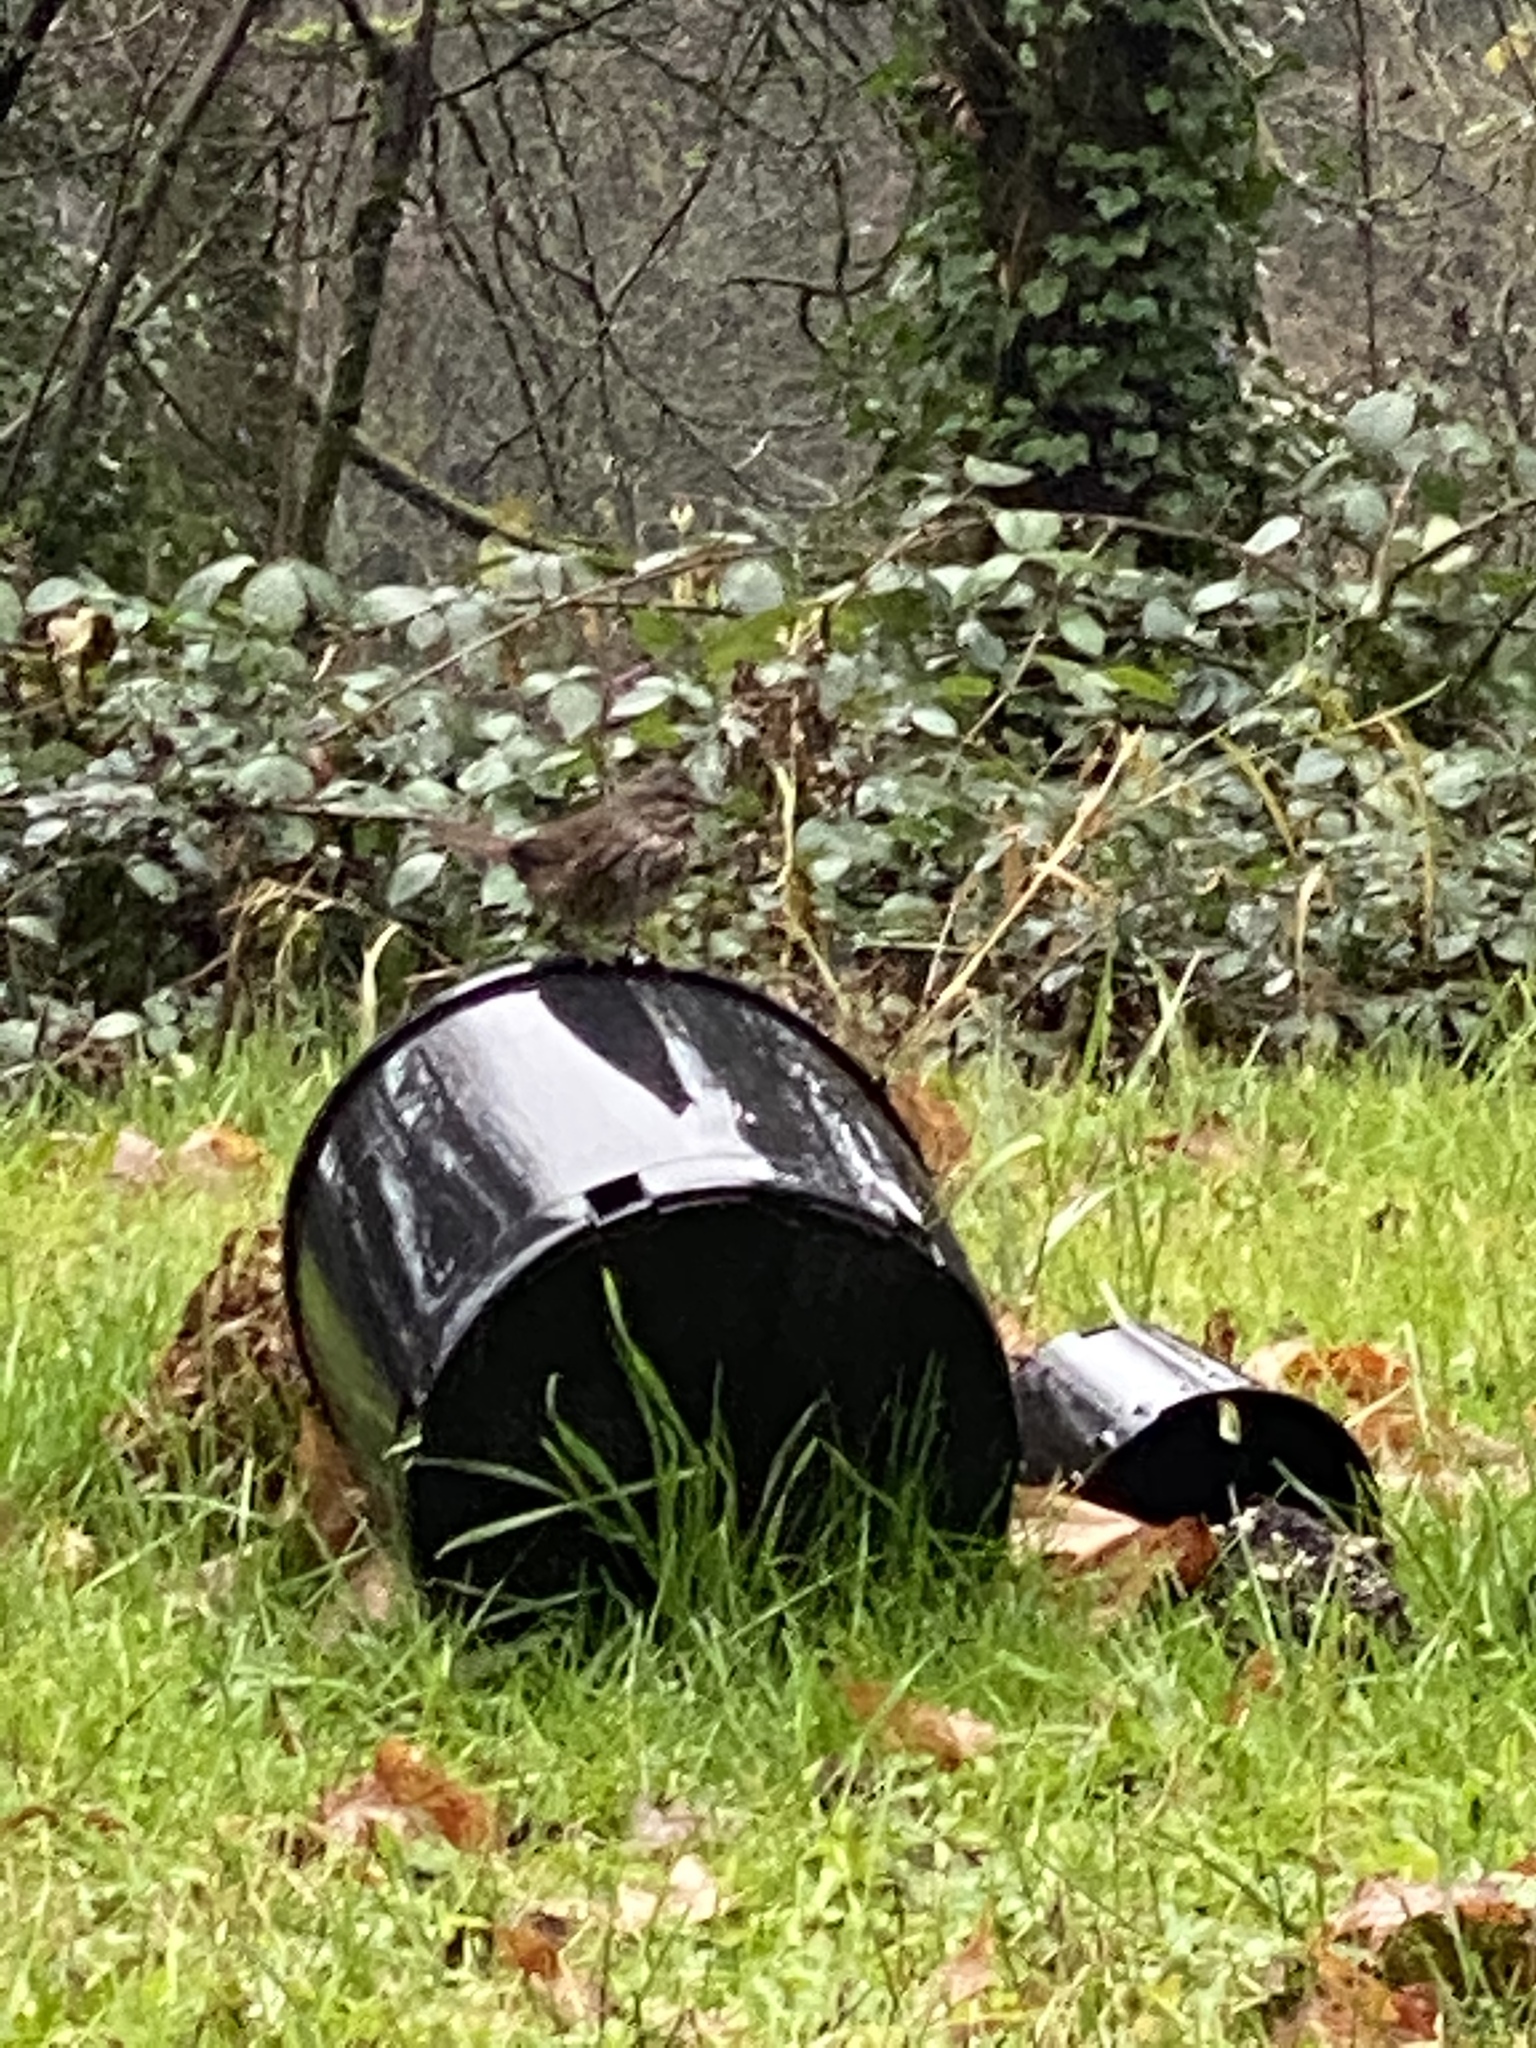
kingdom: Animalia
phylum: Chordata
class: Aves
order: Passeriformes
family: Passerellidae
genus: Melospiza
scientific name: Melospiza melodia
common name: Song sparrow
